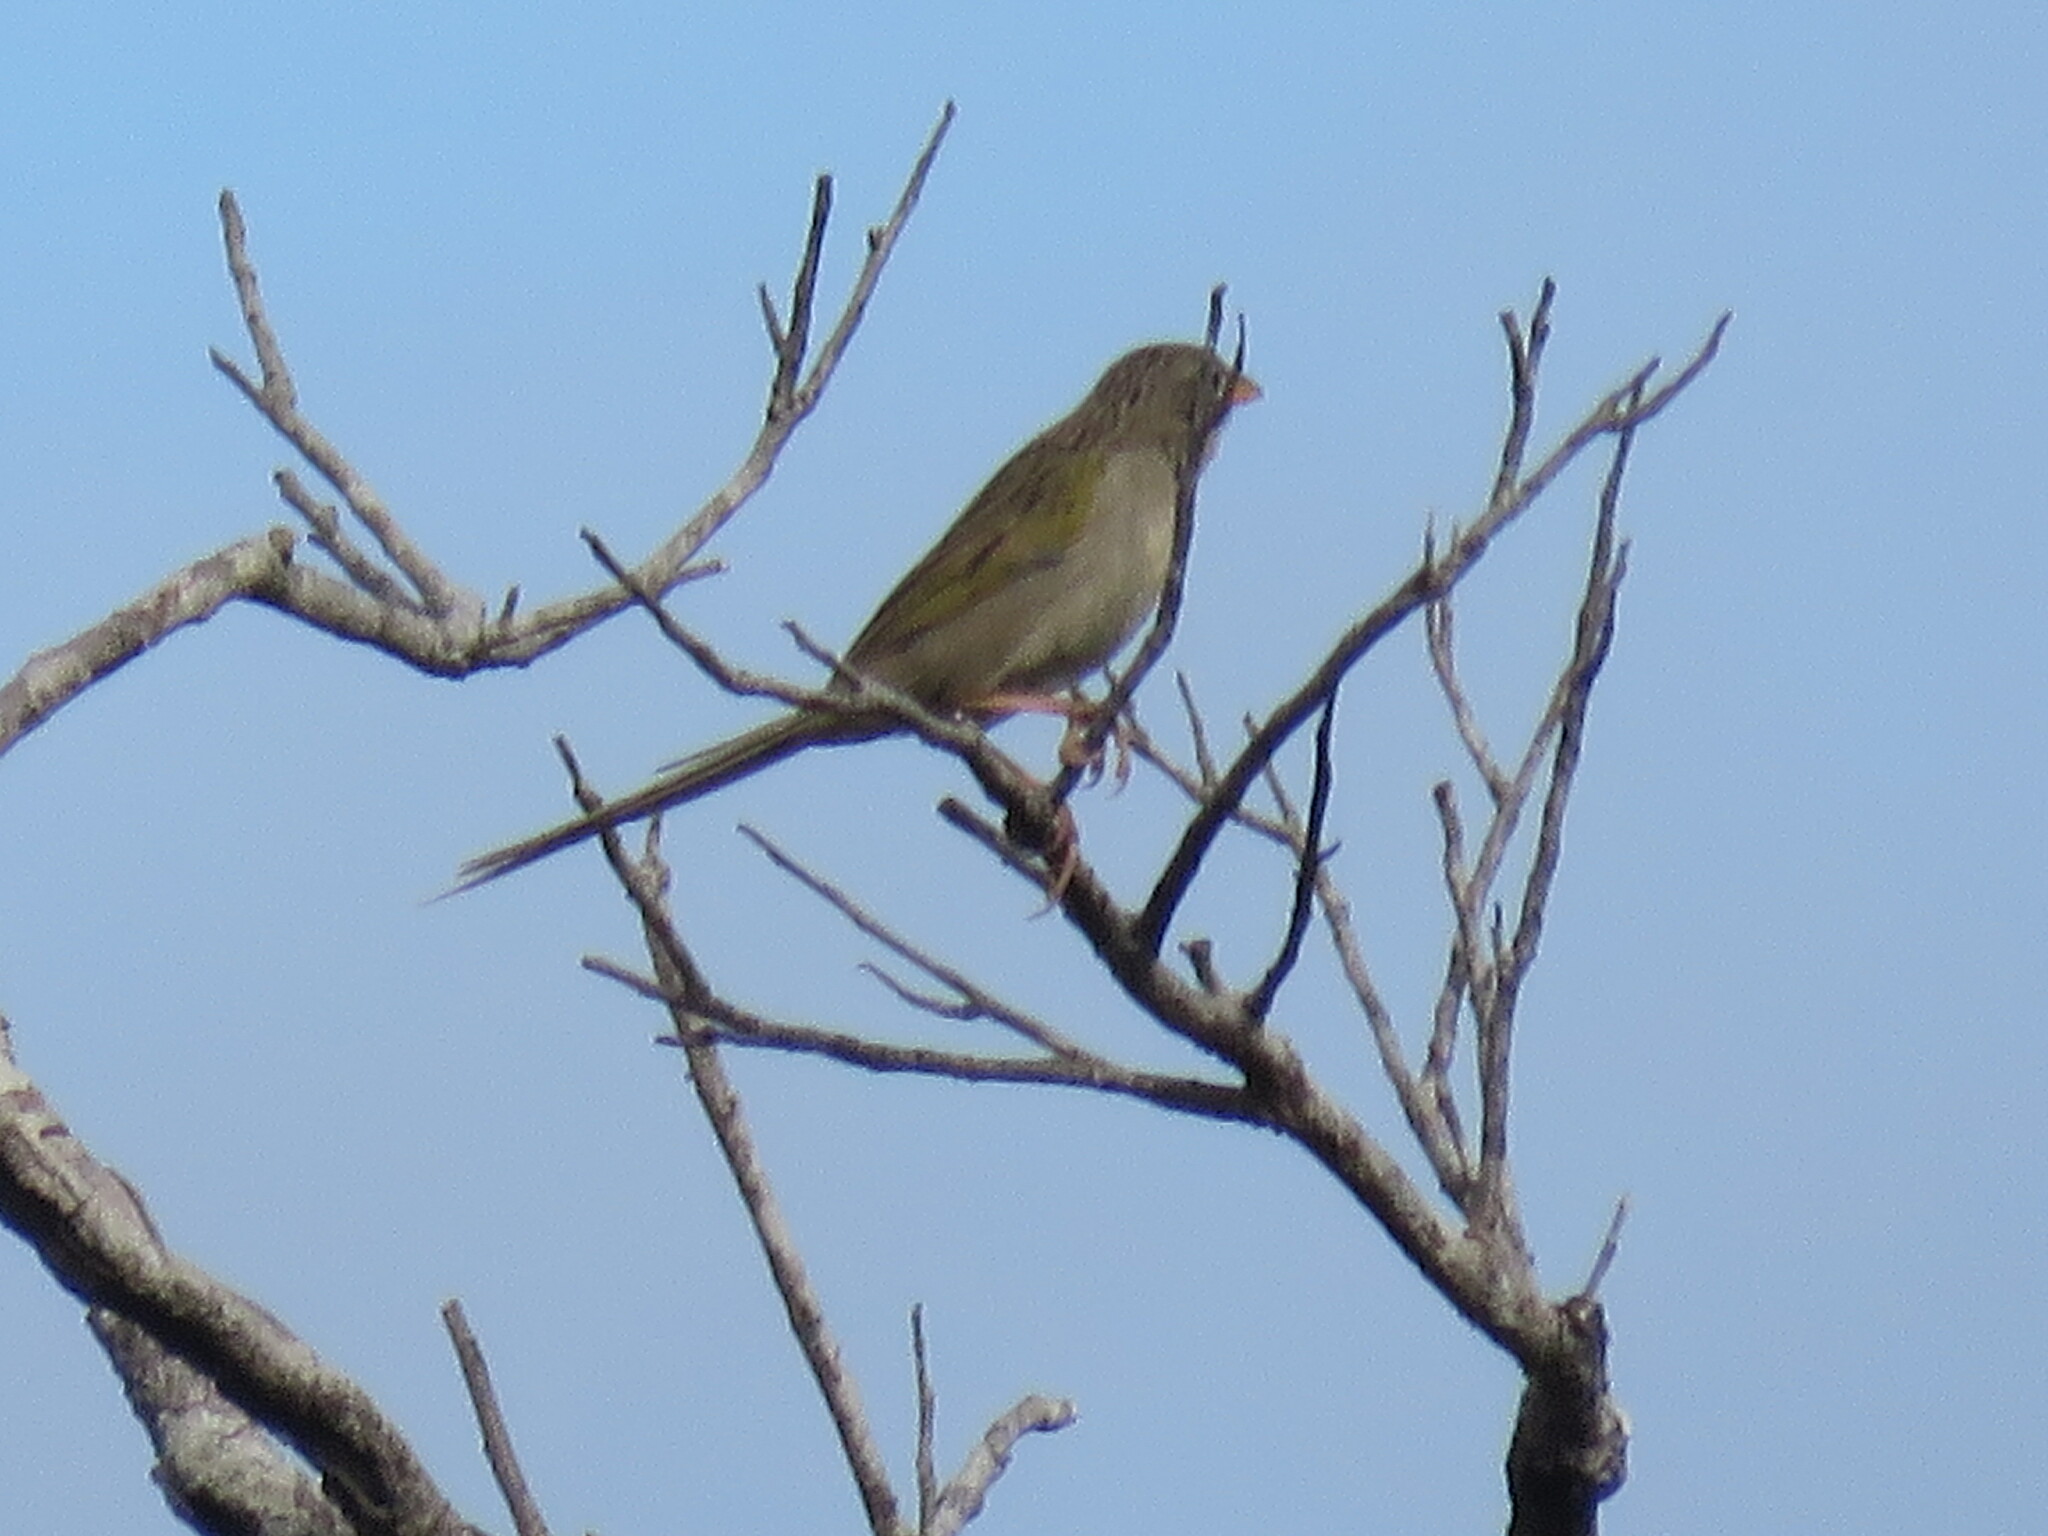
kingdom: Animalia
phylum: Chordata
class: Aves
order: Passeriformes
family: Thraupidae
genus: Emberizoides
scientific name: Emberizoides herbicola
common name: Wedge-tailed grass-finch
